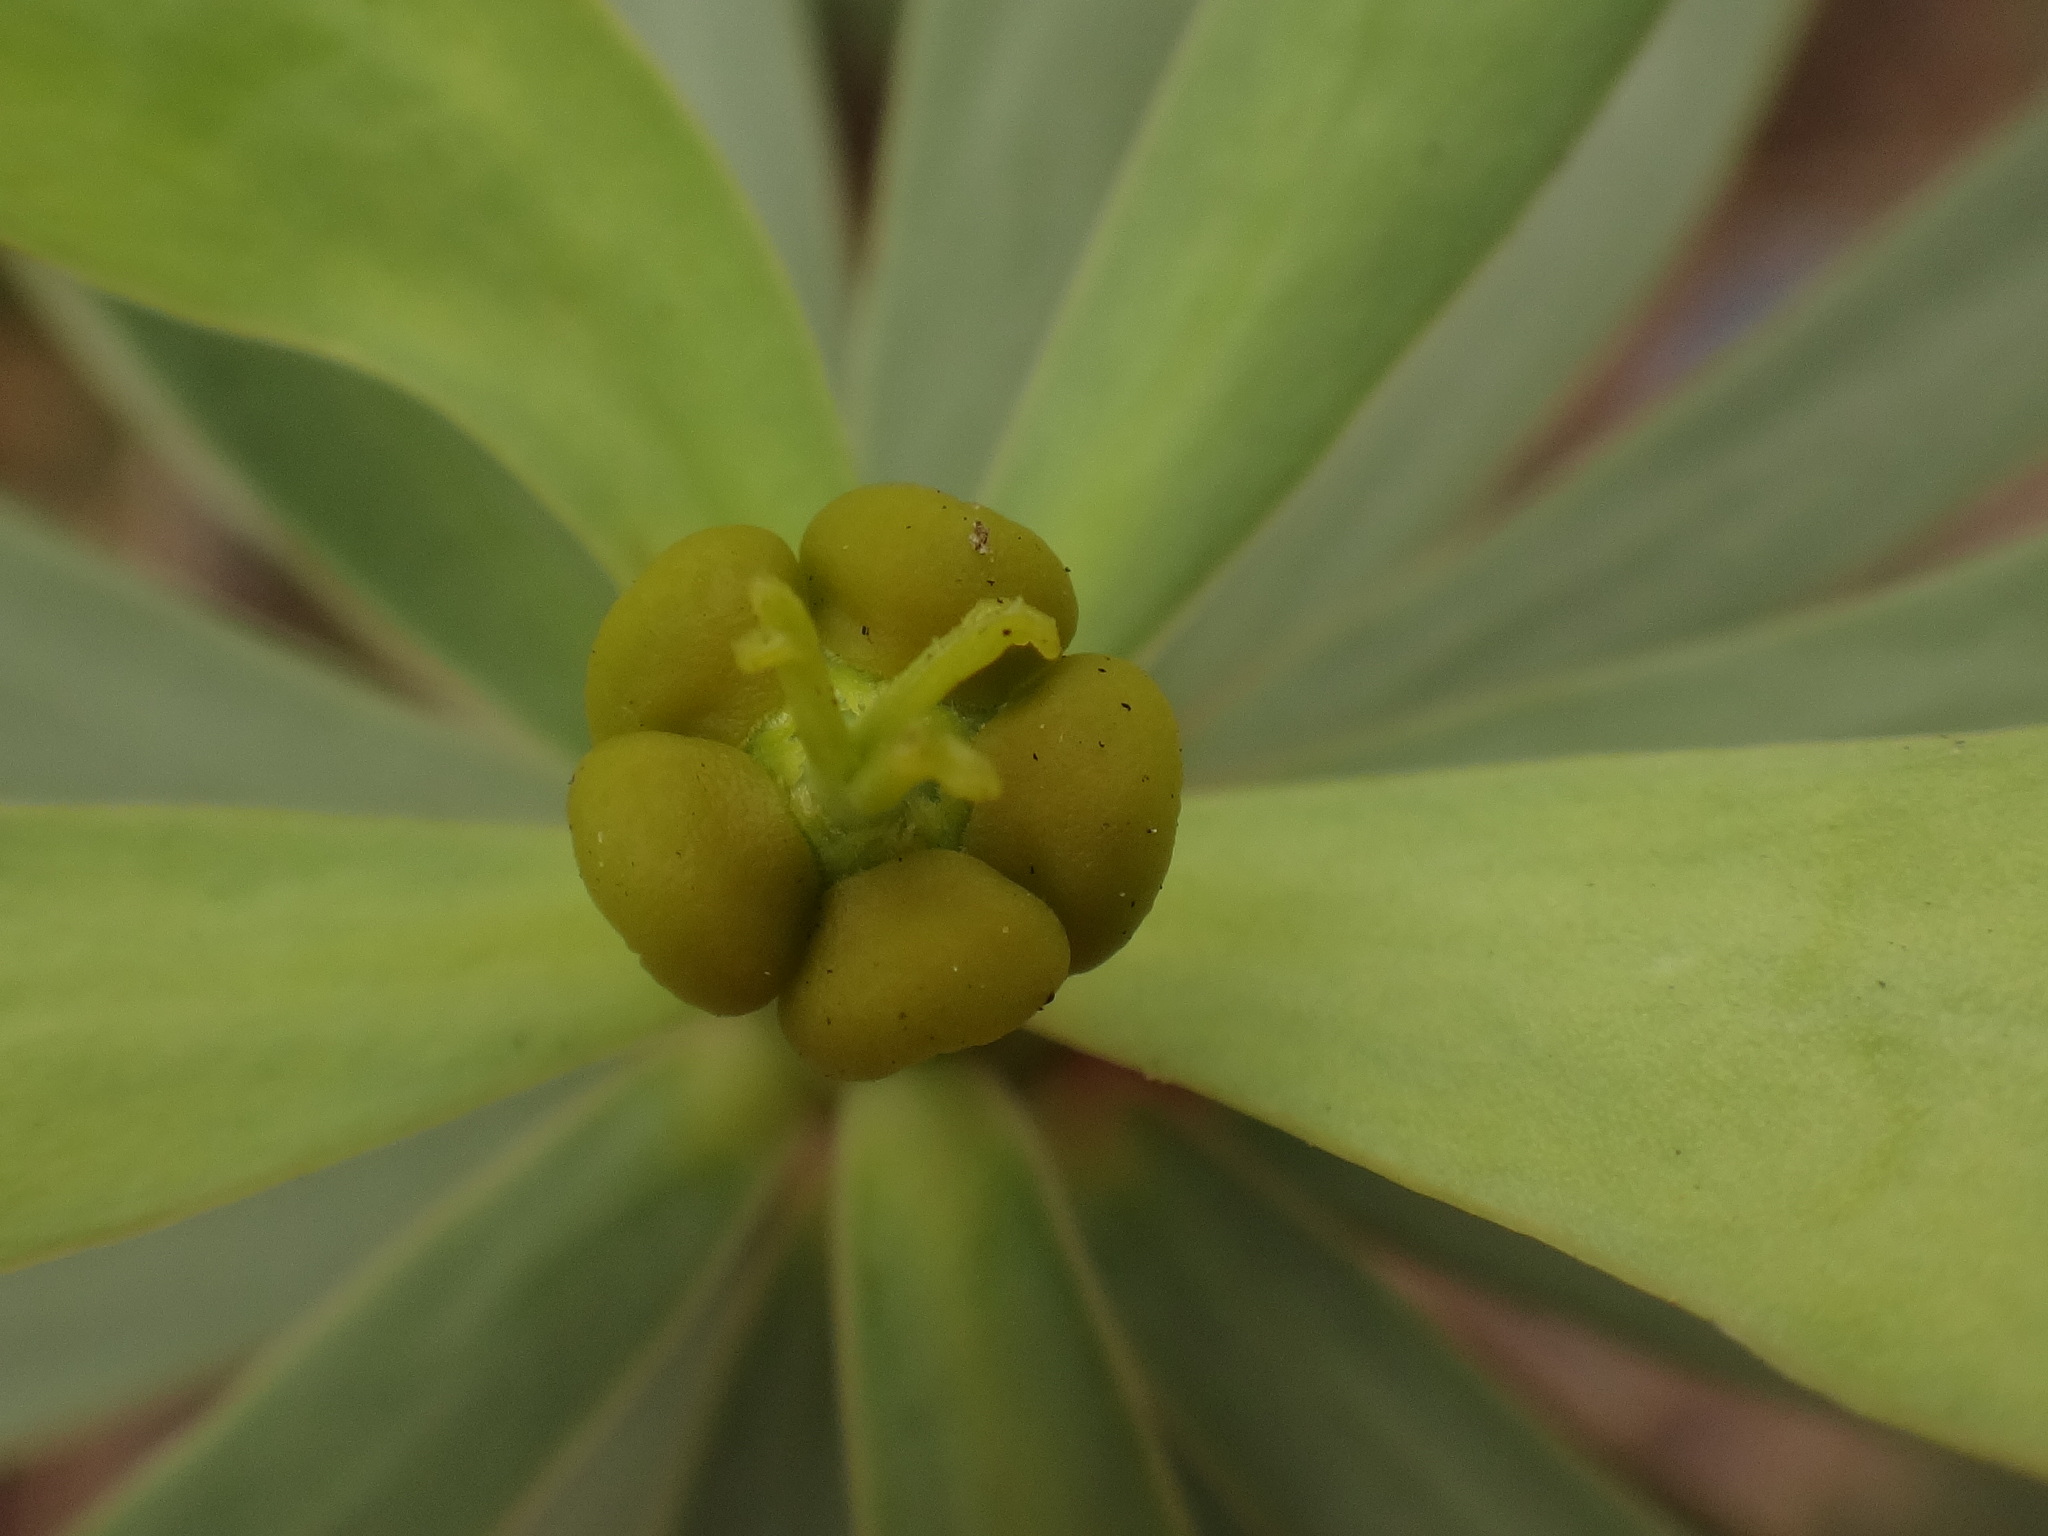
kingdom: Plantae
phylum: Tracheophyta
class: Magnoliopsida
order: Malpighiales
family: Euphorbiaceae
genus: Euphorbia
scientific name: Euphorbia balsamifera
